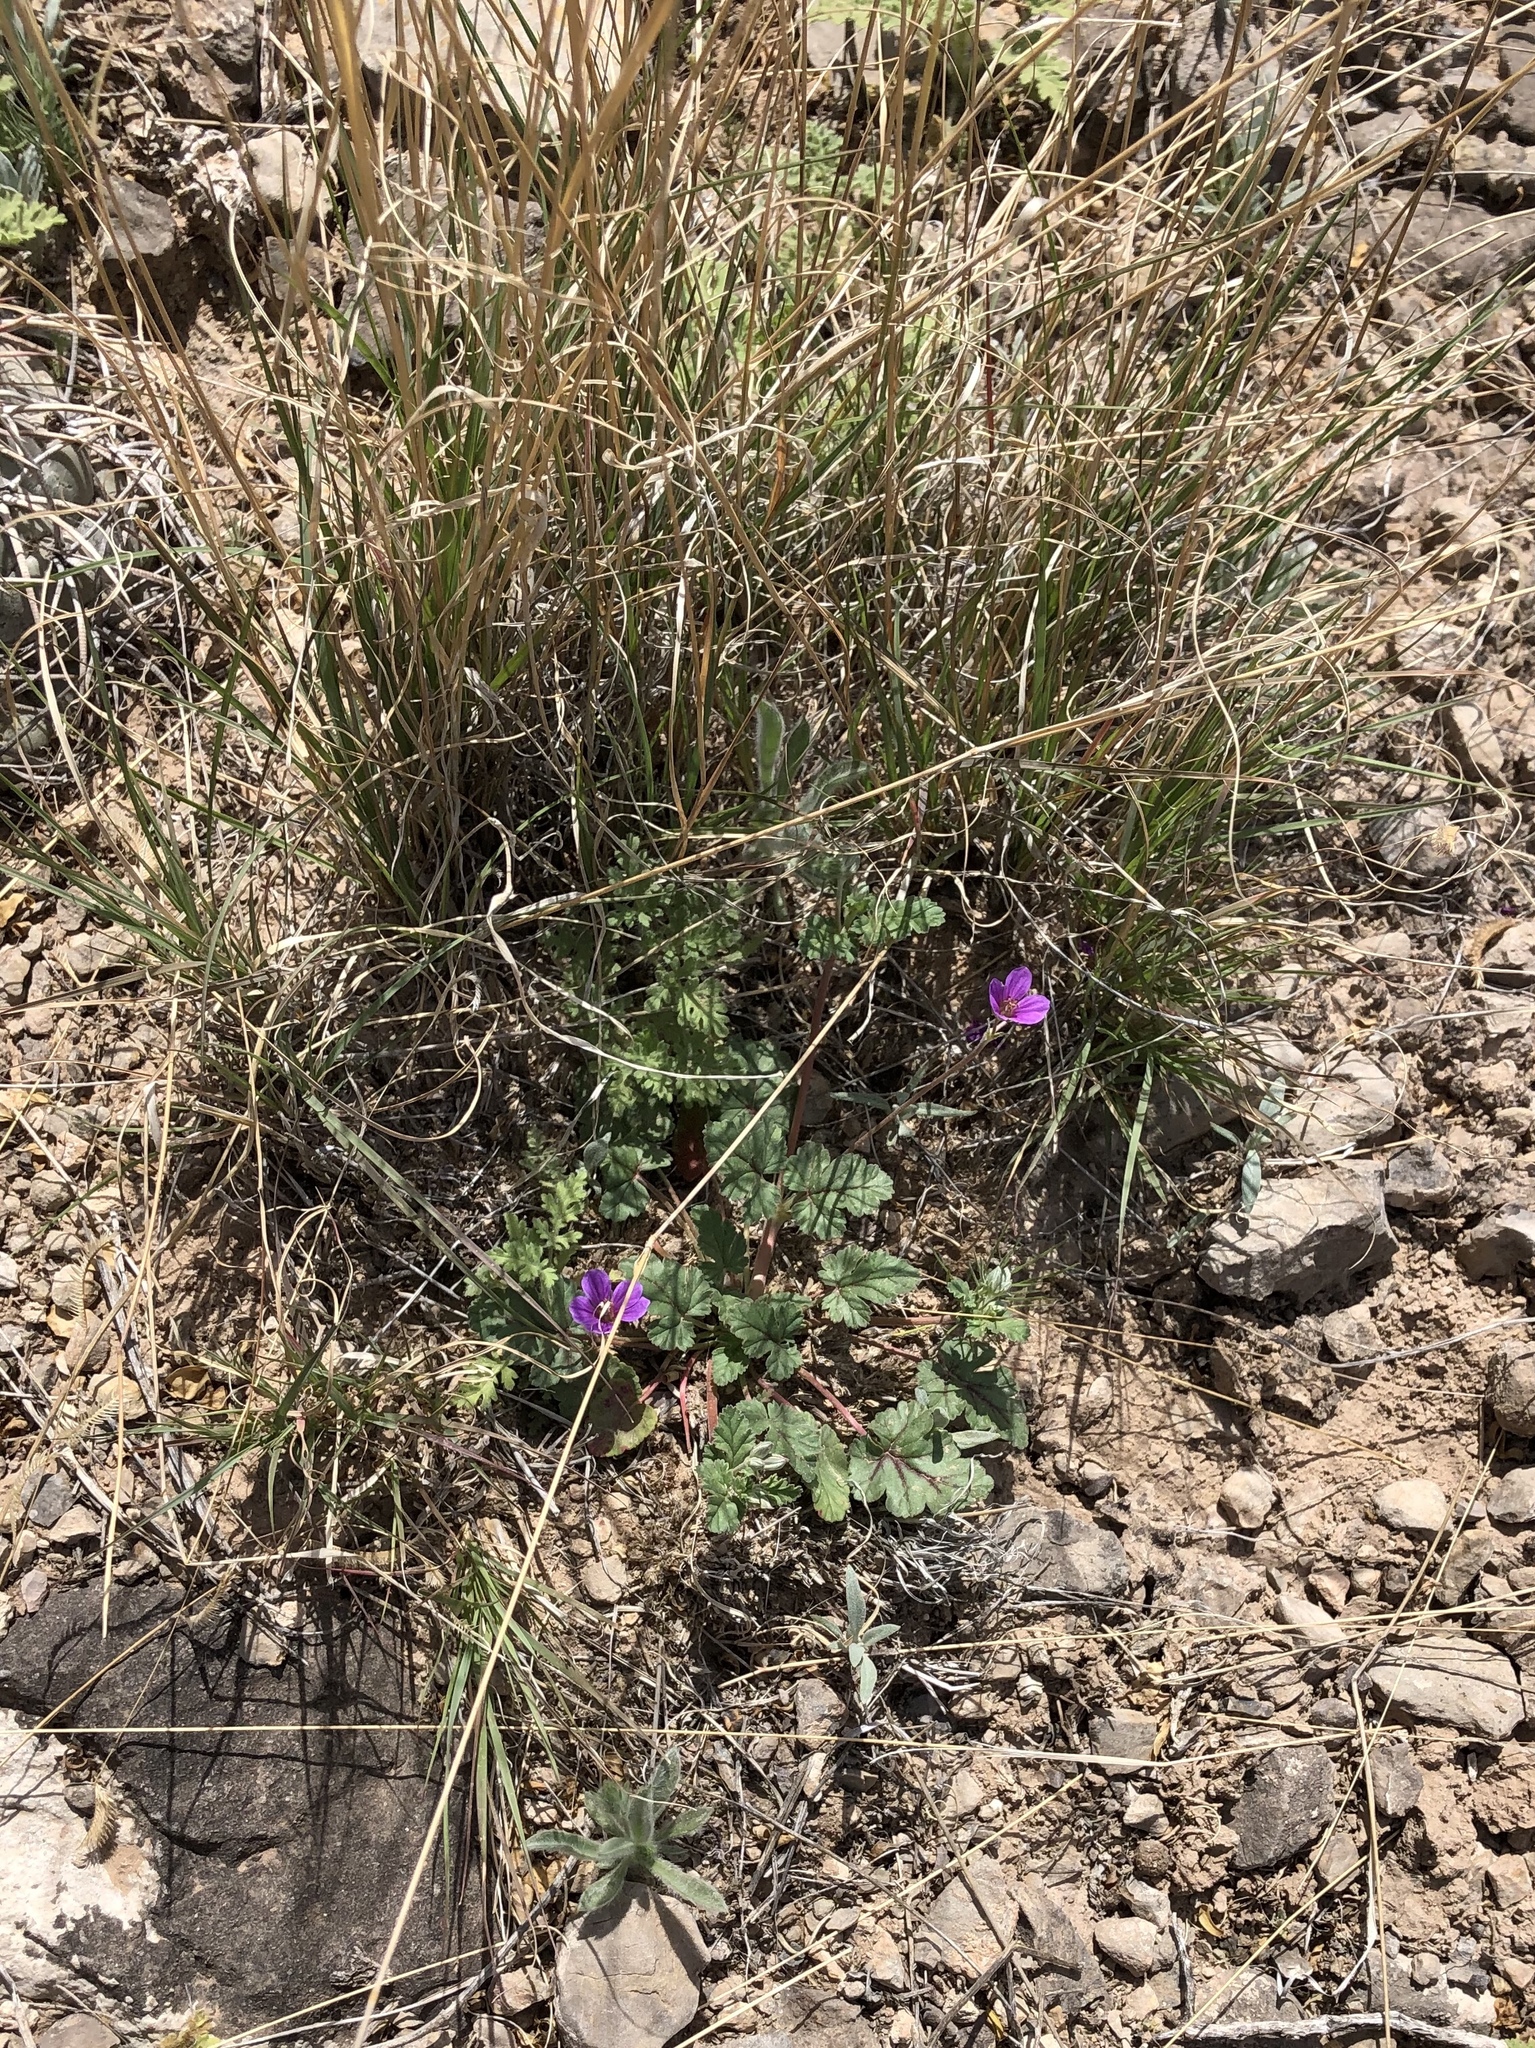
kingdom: Plantae
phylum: Tracheophyta
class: Magnoliopsida
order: Geraniales
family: Geraniaceae
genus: Erodium
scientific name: Erodium texanum
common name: Texas stork's-bill
